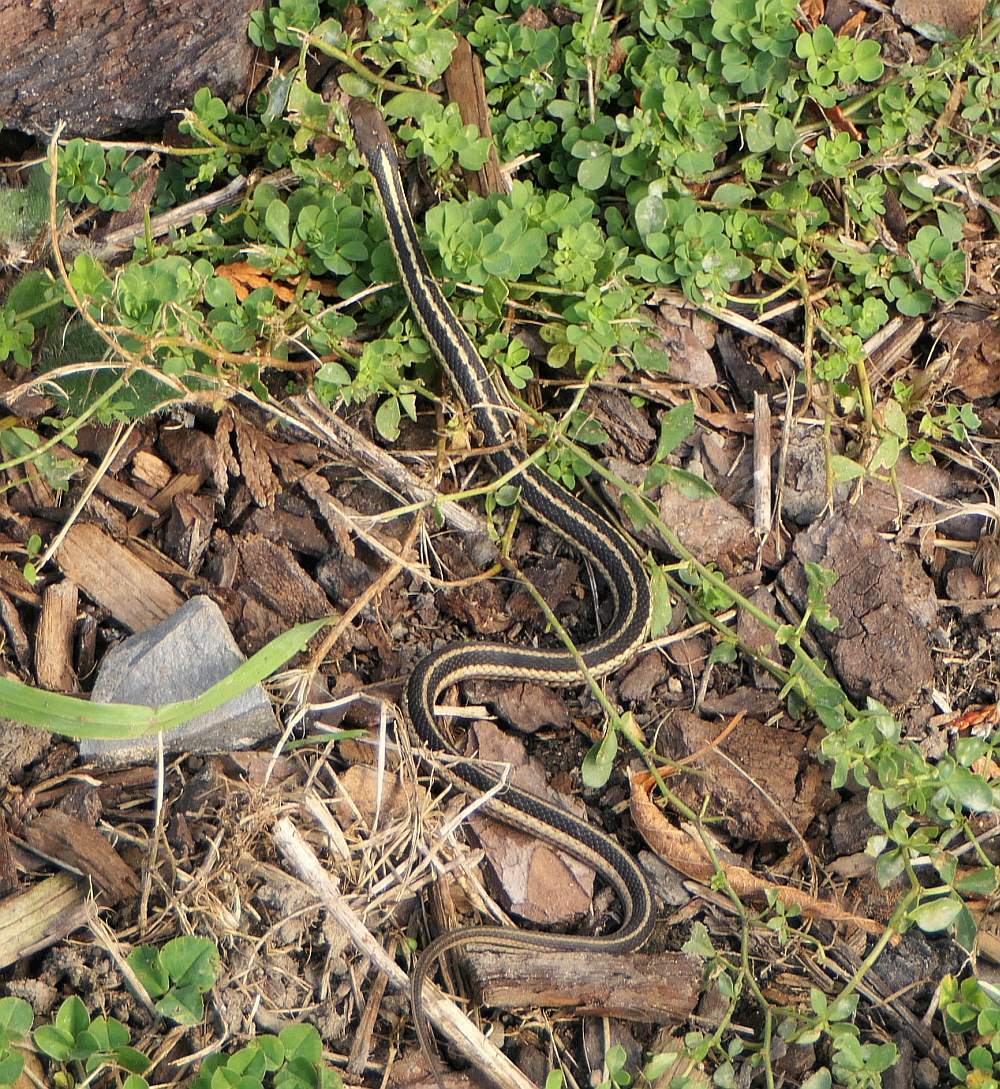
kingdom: Animalia
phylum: Chordata
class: Squamata
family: Colubridae
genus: Thamnophis
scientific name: Thamnophis sirtalis
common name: Common garter snake
